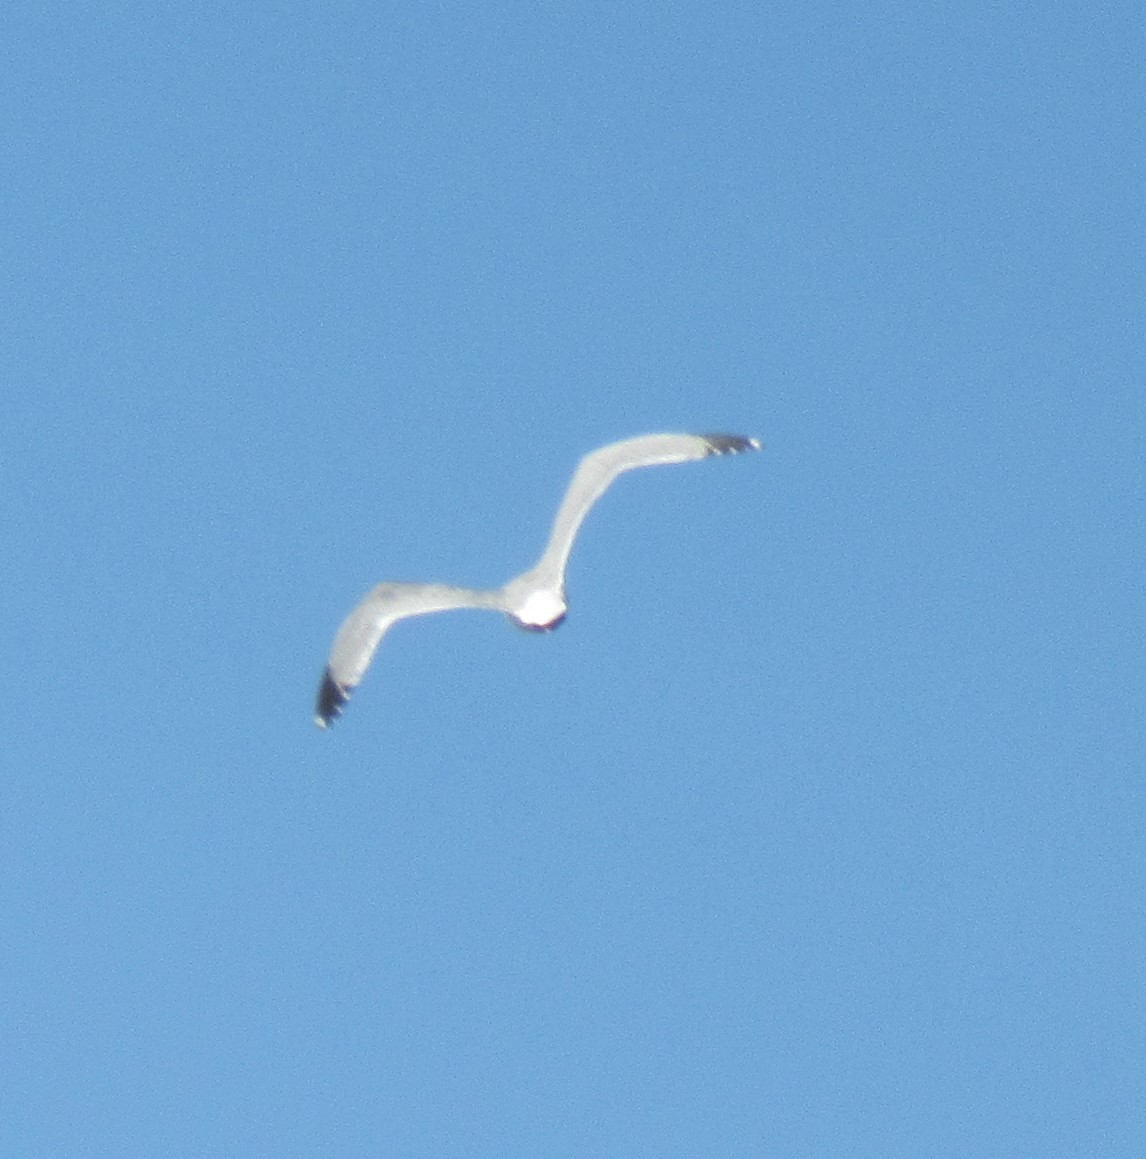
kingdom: Animalia
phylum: Chordata
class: Aves
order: Charadriiformes
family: Laridae
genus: Larus
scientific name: Larus argentatus
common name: Herring gull
